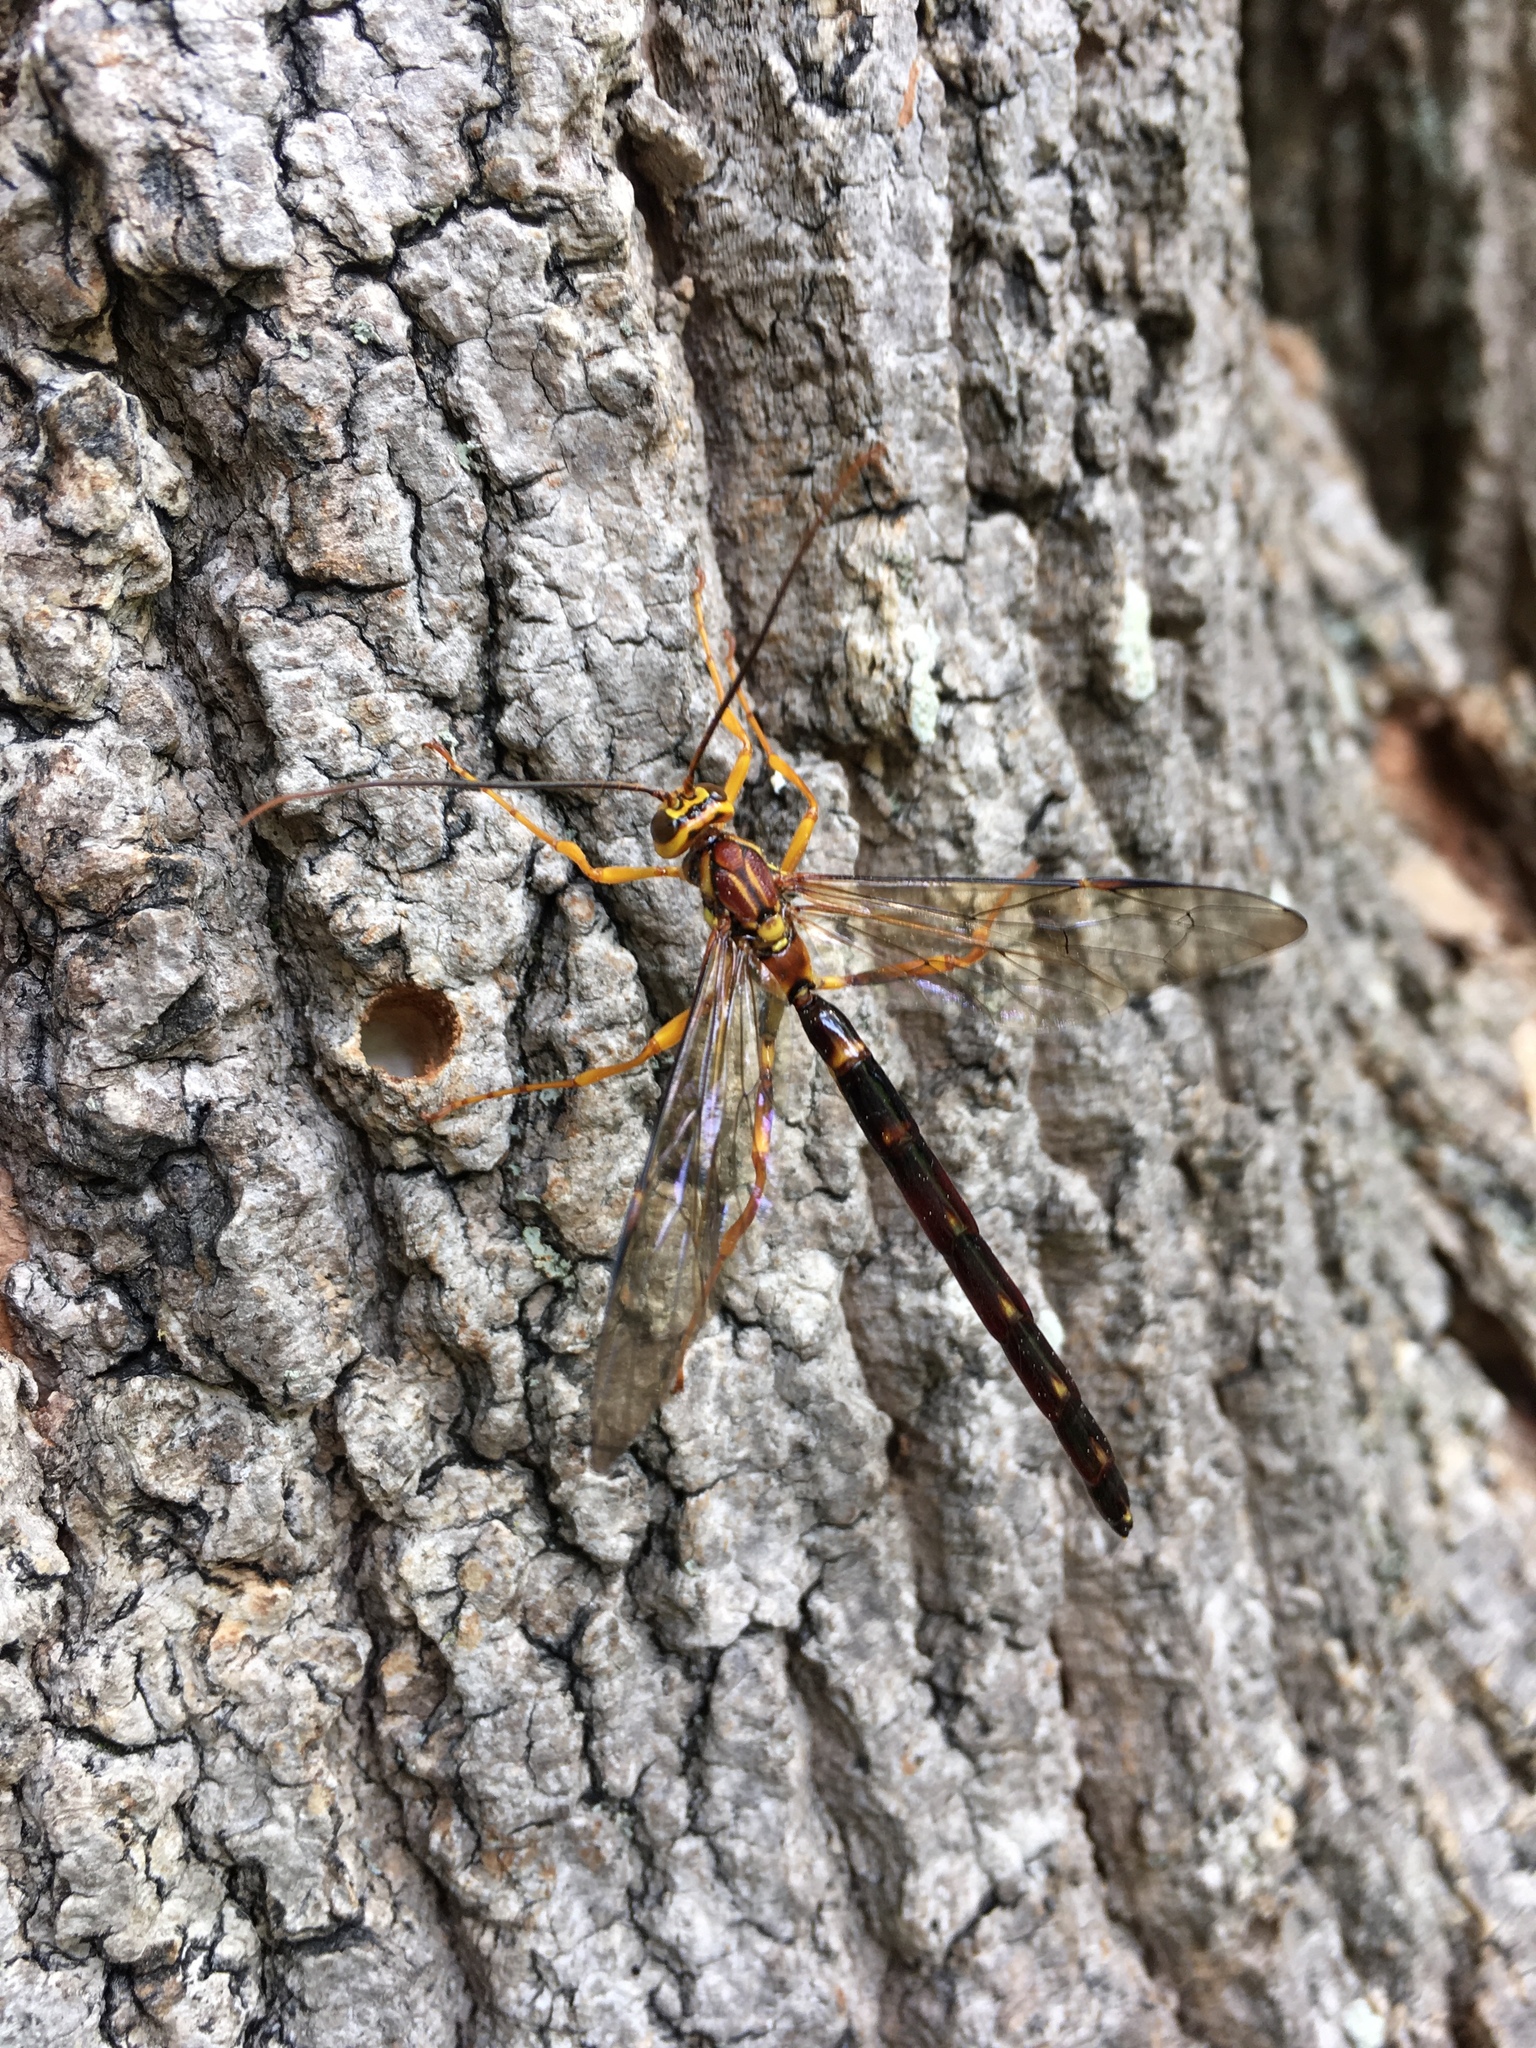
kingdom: Animalia
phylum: Arthropoda
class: Insecta
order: Hymenoptera
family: Ichneumonidae
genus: Megarhyssa
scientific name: Megarhyssa atrata
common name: Black giant ichneumonid wasp
